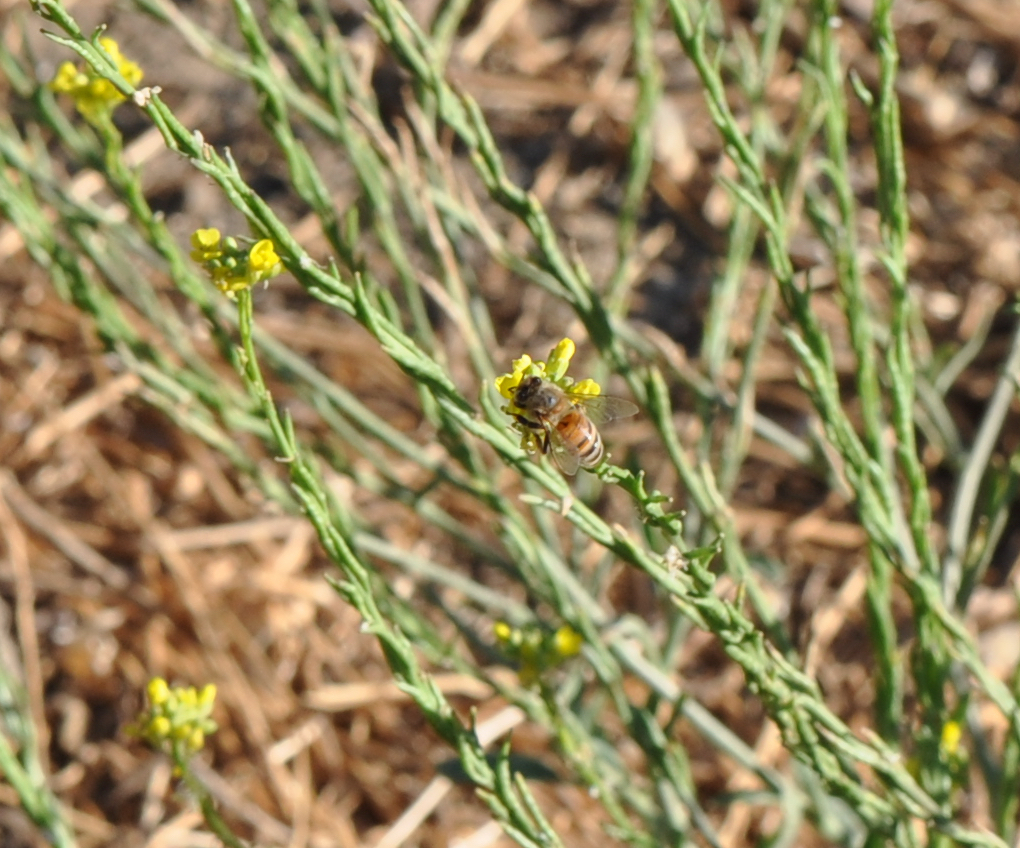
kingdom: Animalia
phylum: Arthropoda
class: Insecta
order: Hymenoptera
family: Apidae
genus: Apis
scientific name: Apis mellifera
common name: Honey bee
